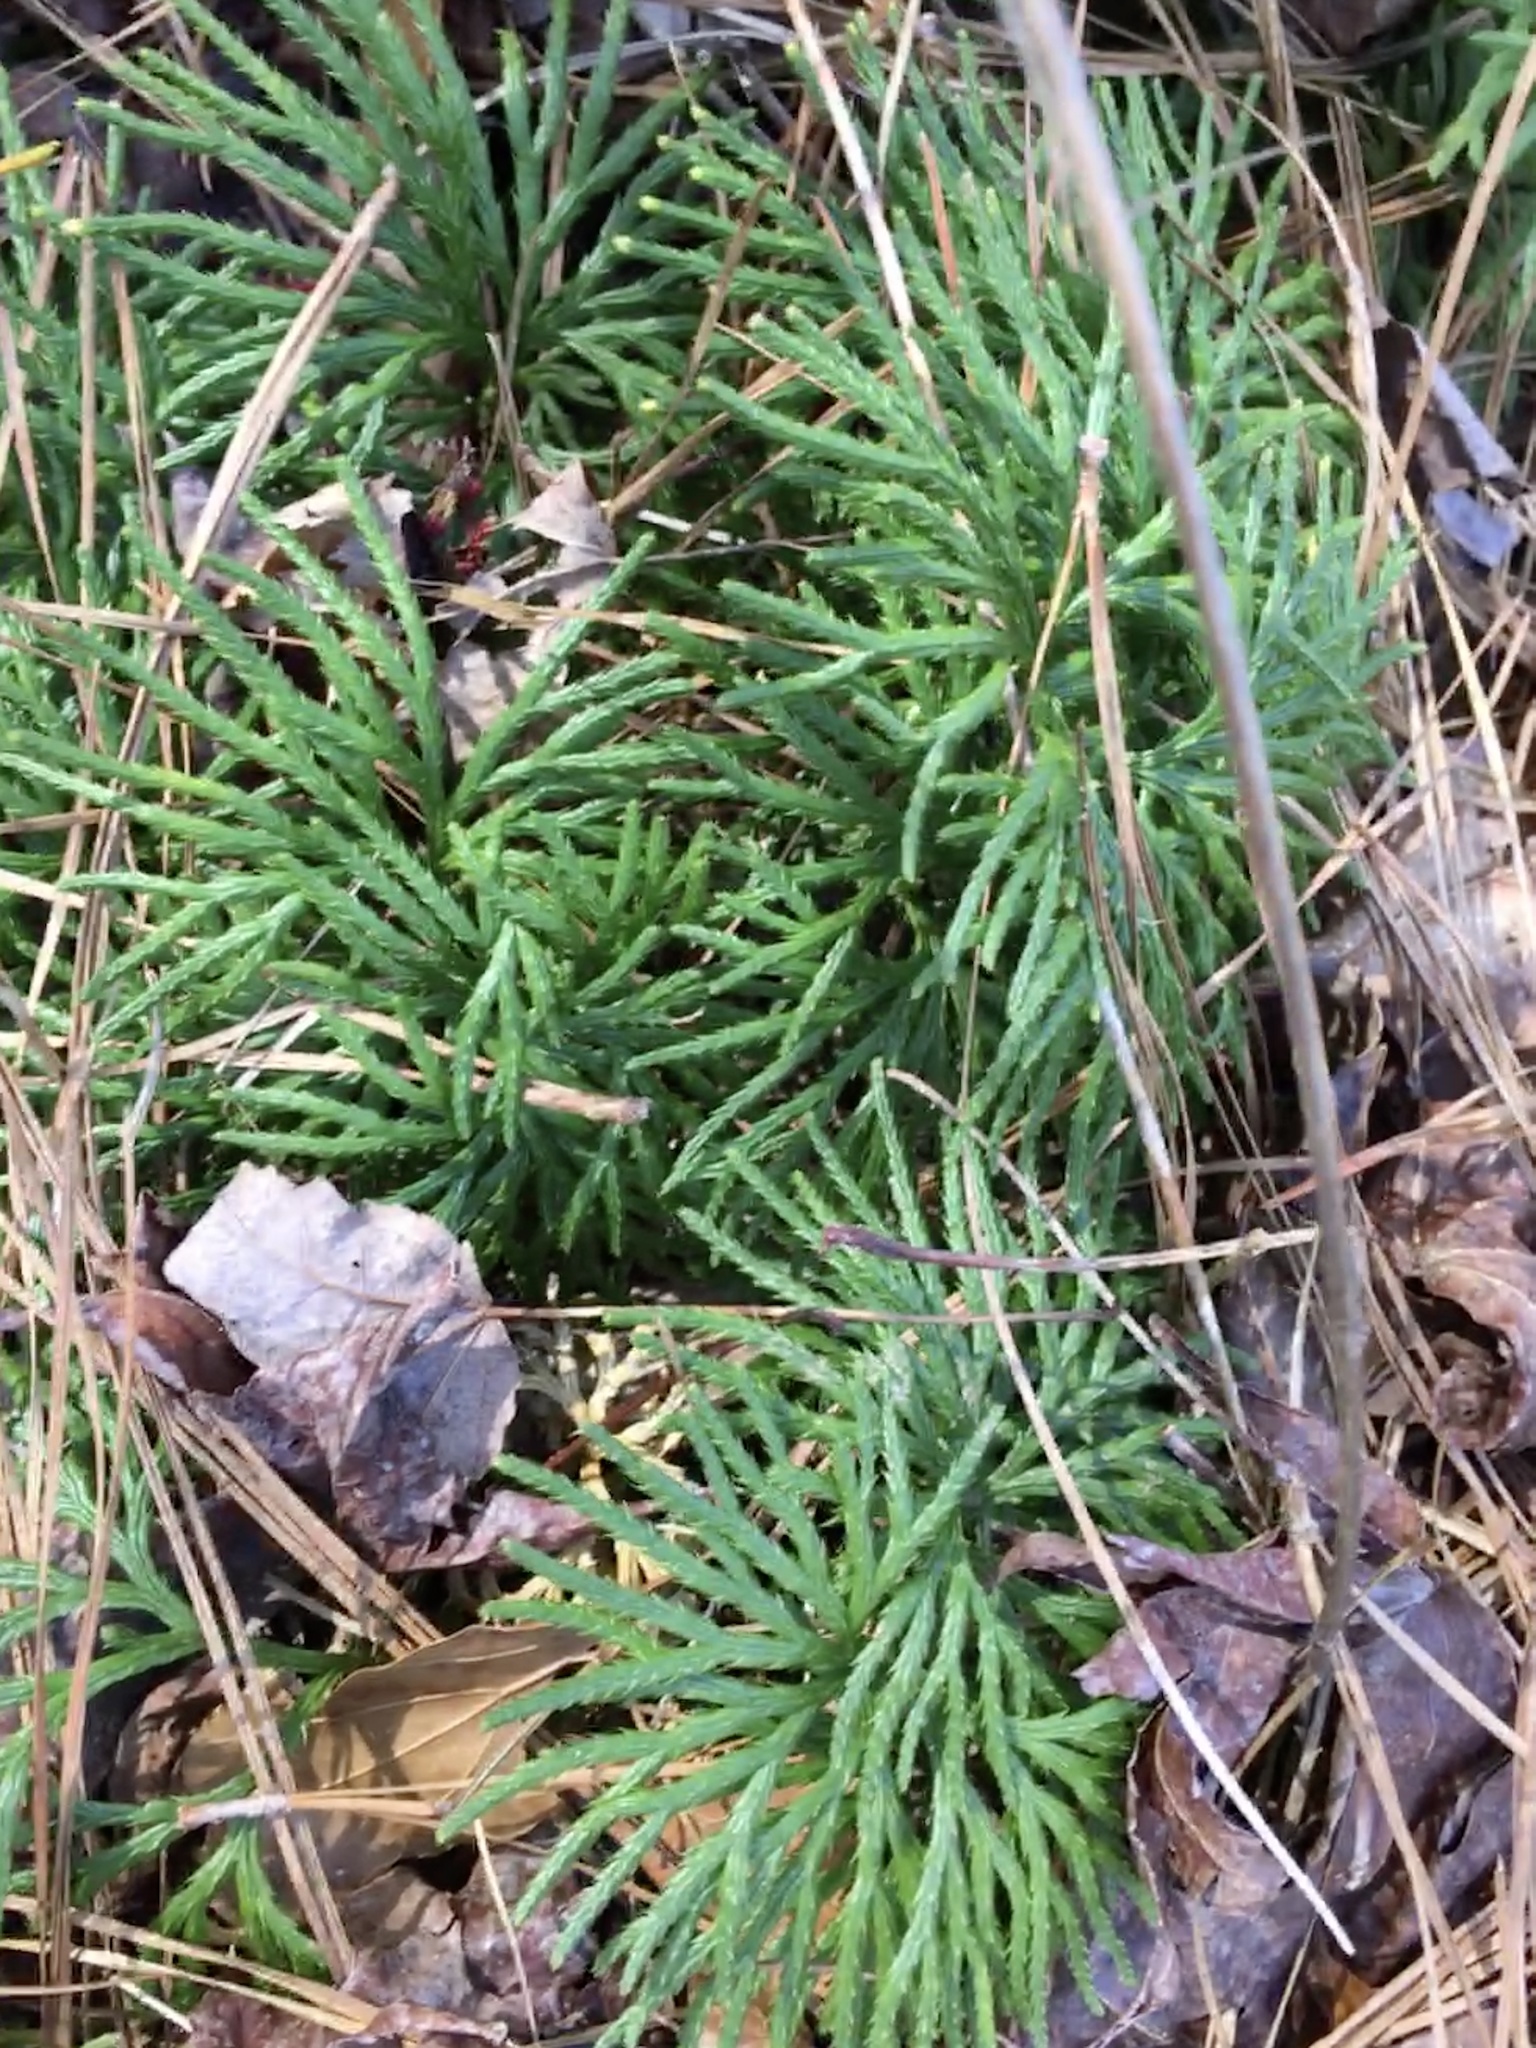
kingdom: Plantae
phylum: Tracheophyta
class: Lycopodiopsida
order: Lycopodiales
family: Lycopodiaceae
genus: Diphasiastrum
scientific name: Diphasiastrum digitatum
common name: Southern running-pine
